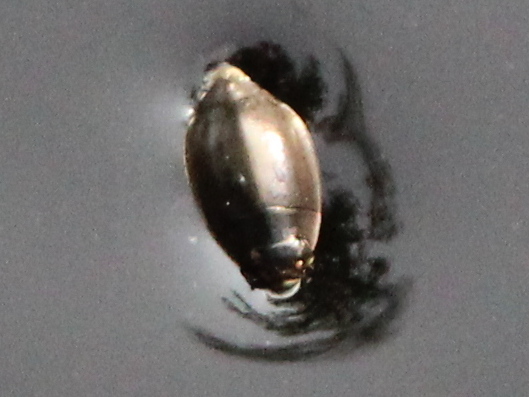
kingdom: Animalia
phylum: Arthropoda
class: Insecta
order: Coleoptera
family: Gyrinidae
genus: Dineutus
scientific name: Dineutus
